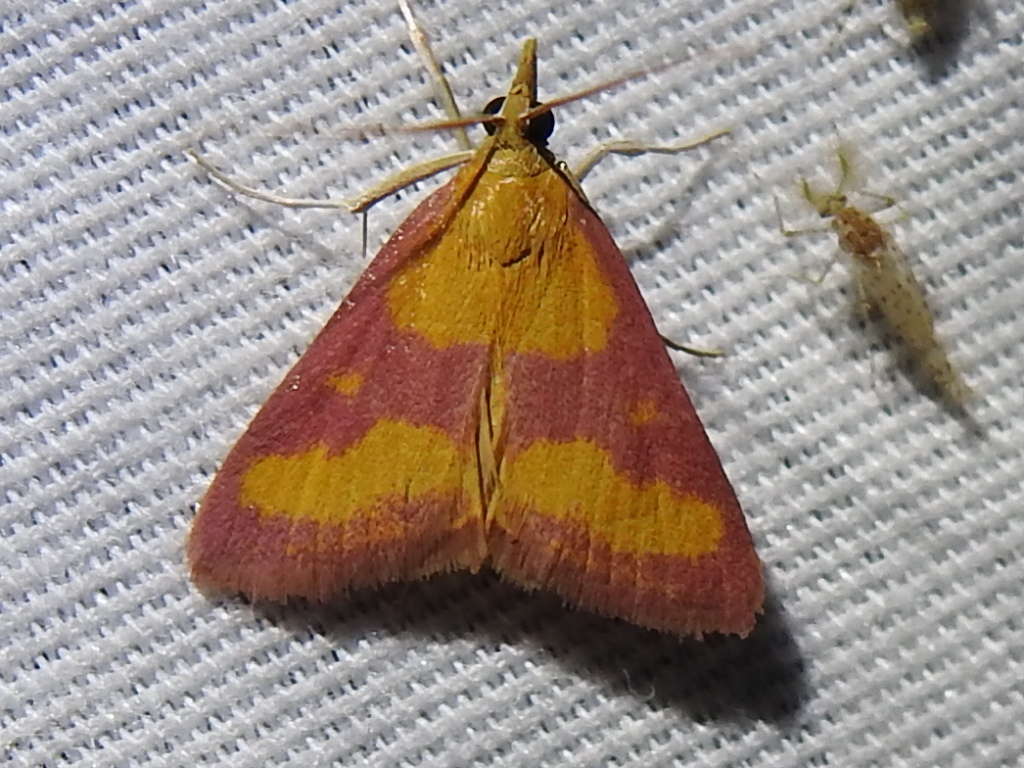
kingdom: Animalia
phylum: Arthropoda
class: Insecta
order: Lepidoptera
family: Crambidae
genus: Pyrausta
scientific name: Pyrausta laticlavia
